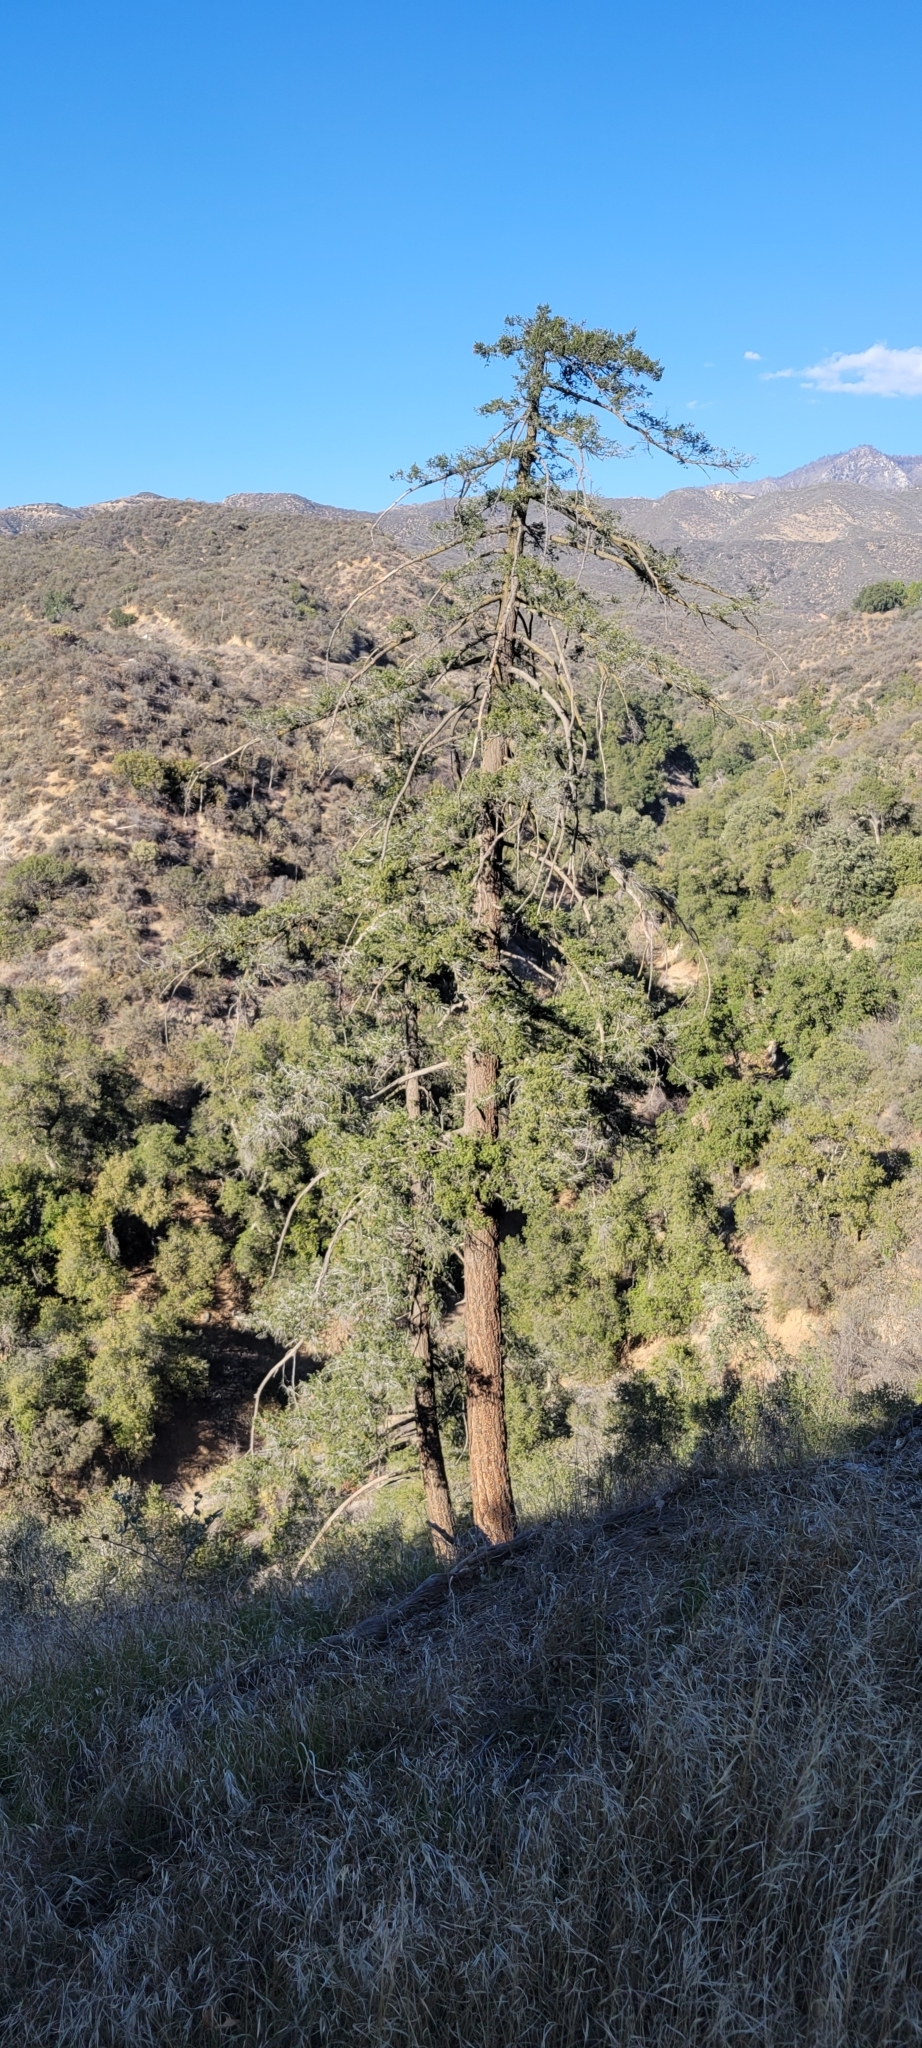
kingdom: Plantae
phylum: Tracheophyta
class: Pinopsida
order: Pinales
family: Pinaceae
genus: Pseudotsuga
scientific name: Pseudotsuga macrocarpa
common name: Big-cone douglas-fir
